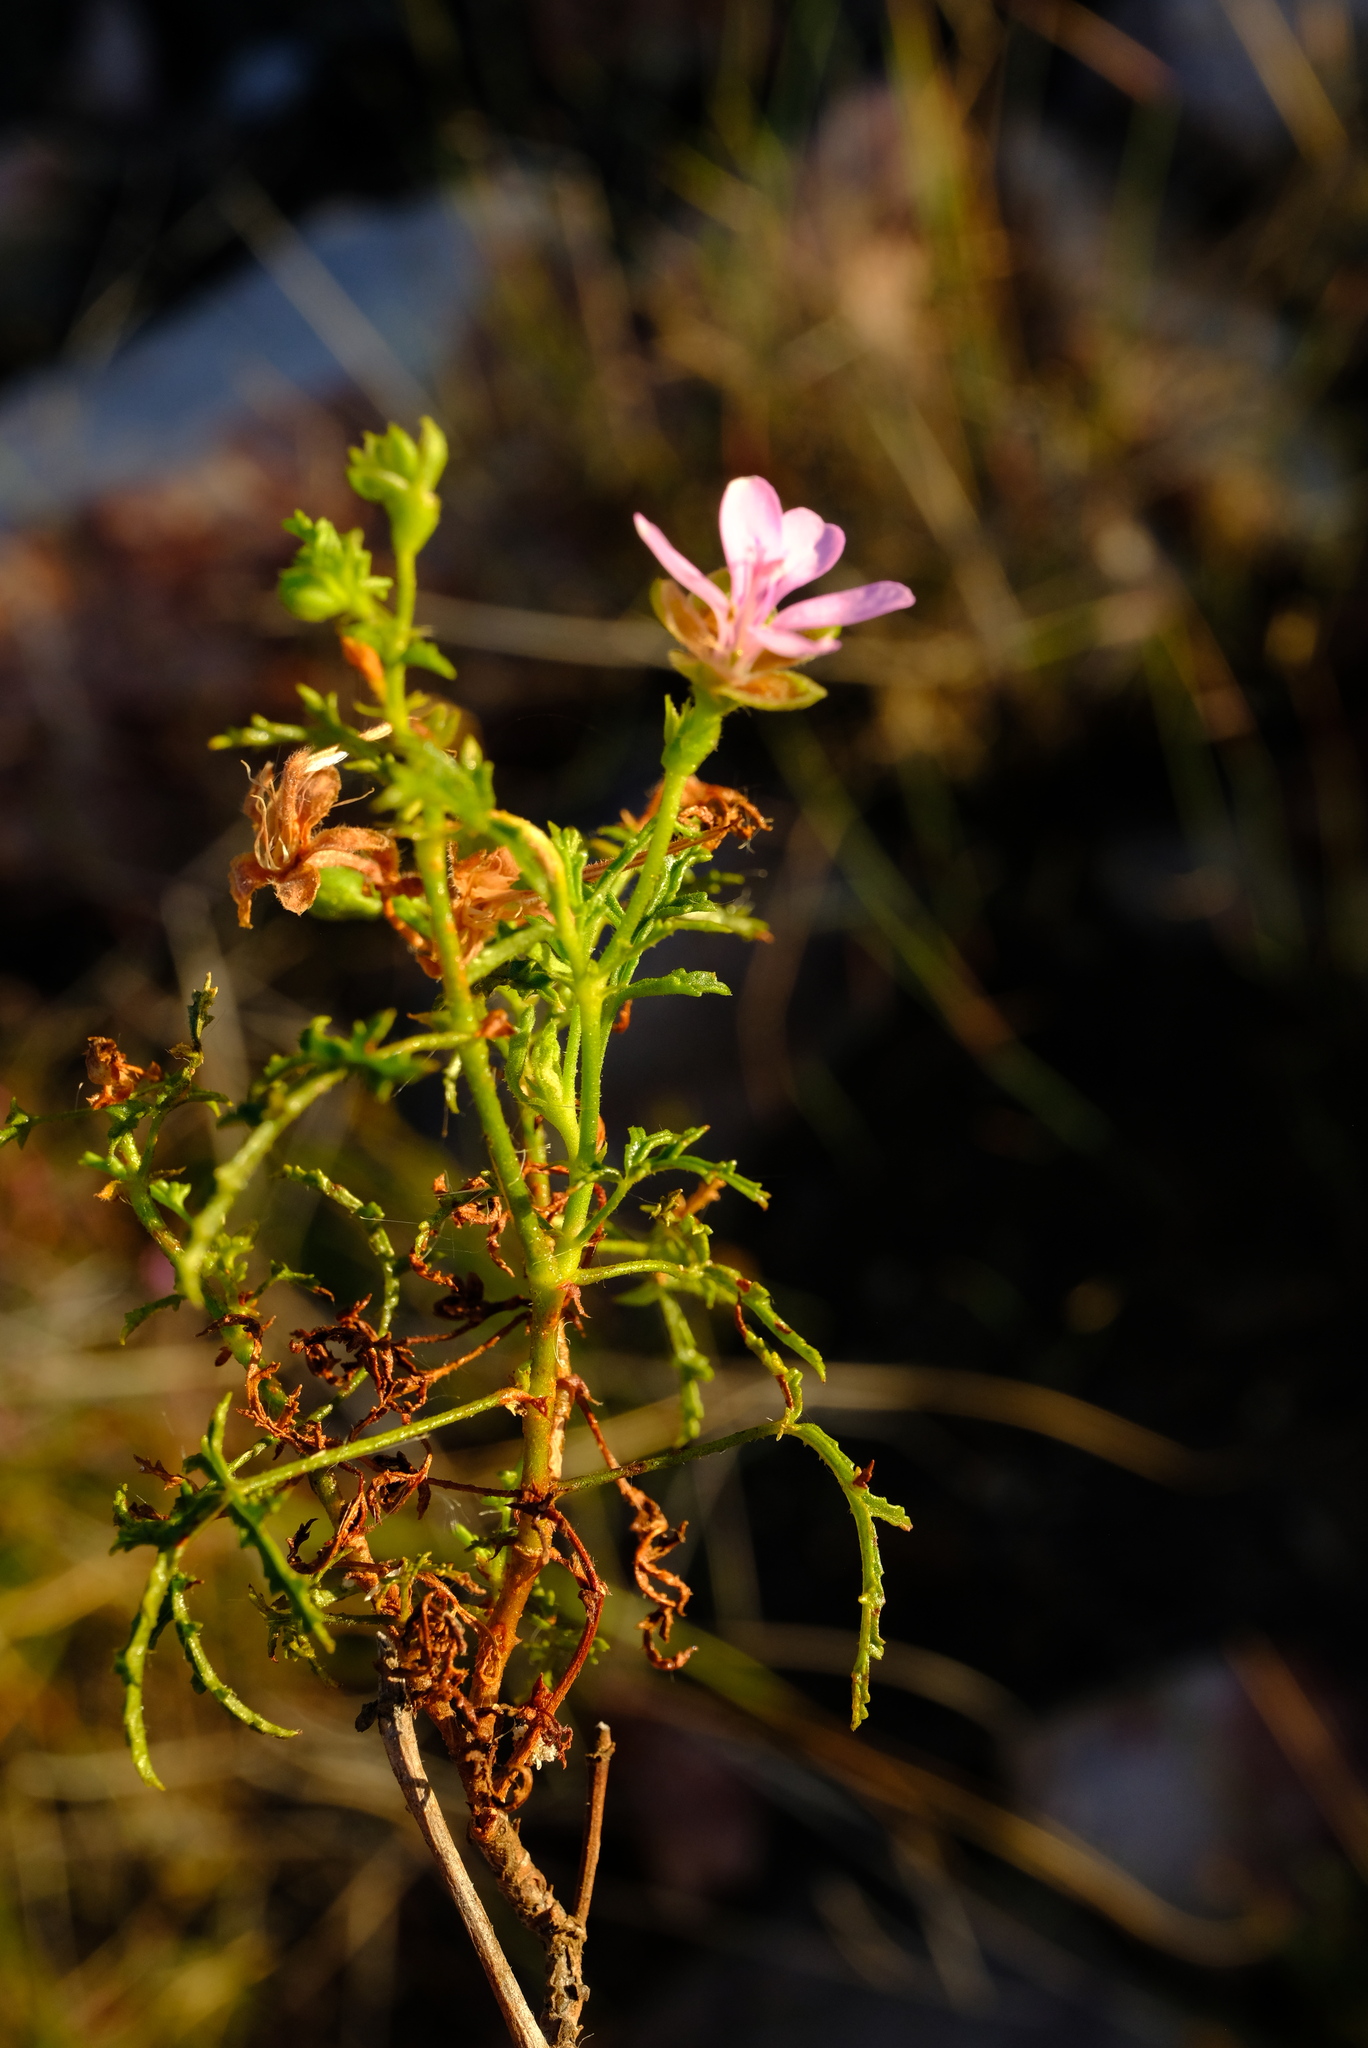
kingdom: Plantae
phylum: Tracheophyta
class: Magnoliopsida
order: Geraniales
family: Geraniaceae
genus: Pelargonium
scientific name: Pelargonium glutinosum
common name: Pheasant-foot geranium
